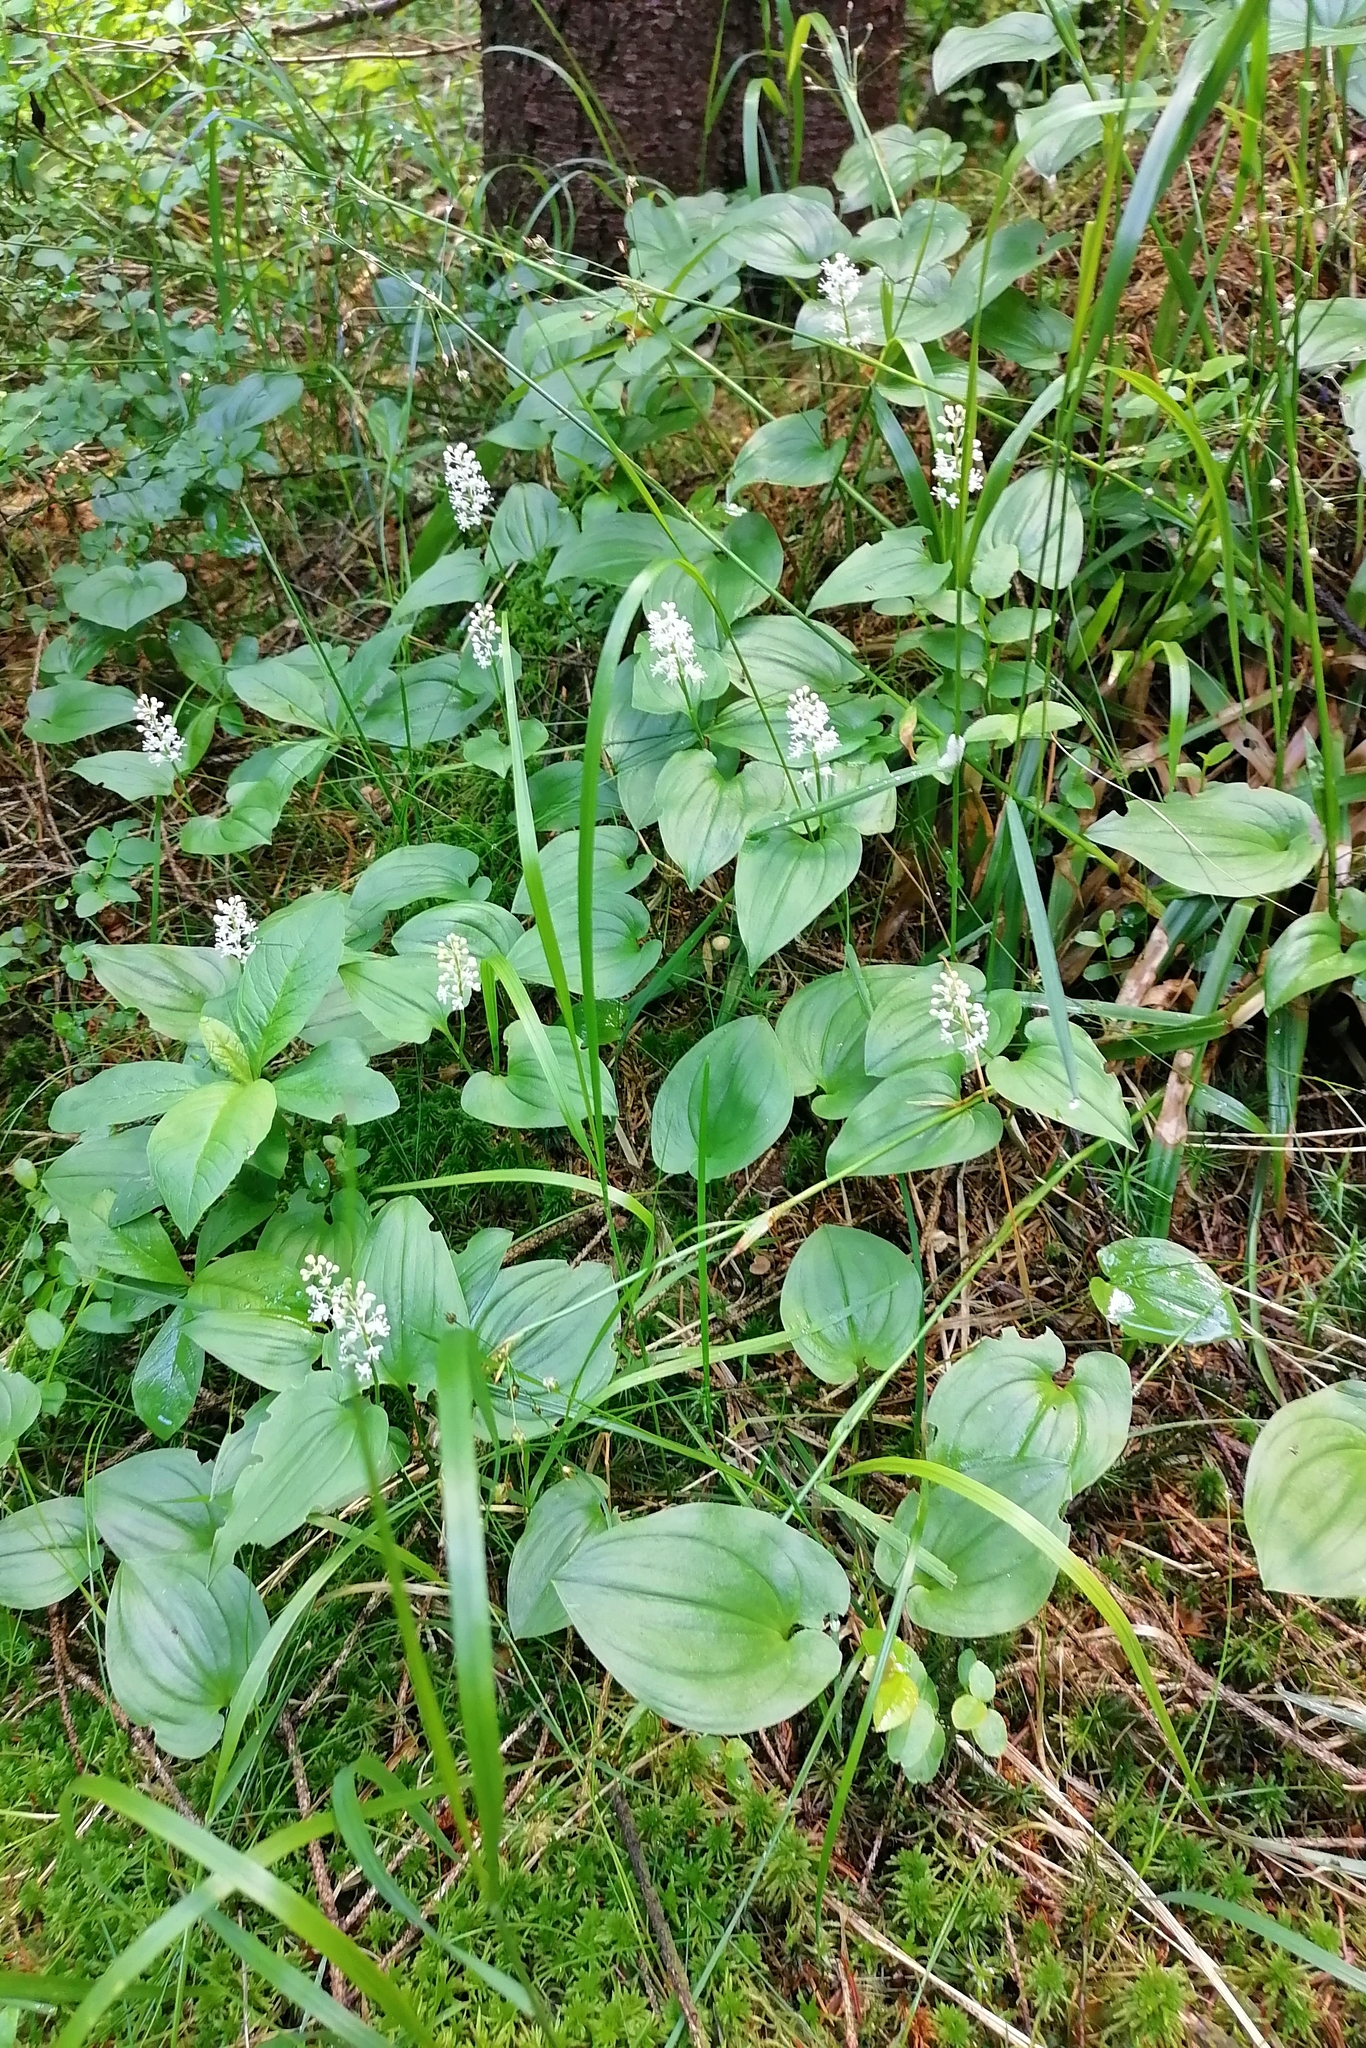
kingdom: Plantae
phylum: Tracheophyta
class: Liliopsida
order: Asparagales
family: Asparagaceae
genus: Maianthemum
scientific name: Maianthemum bifolium
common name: May lily
